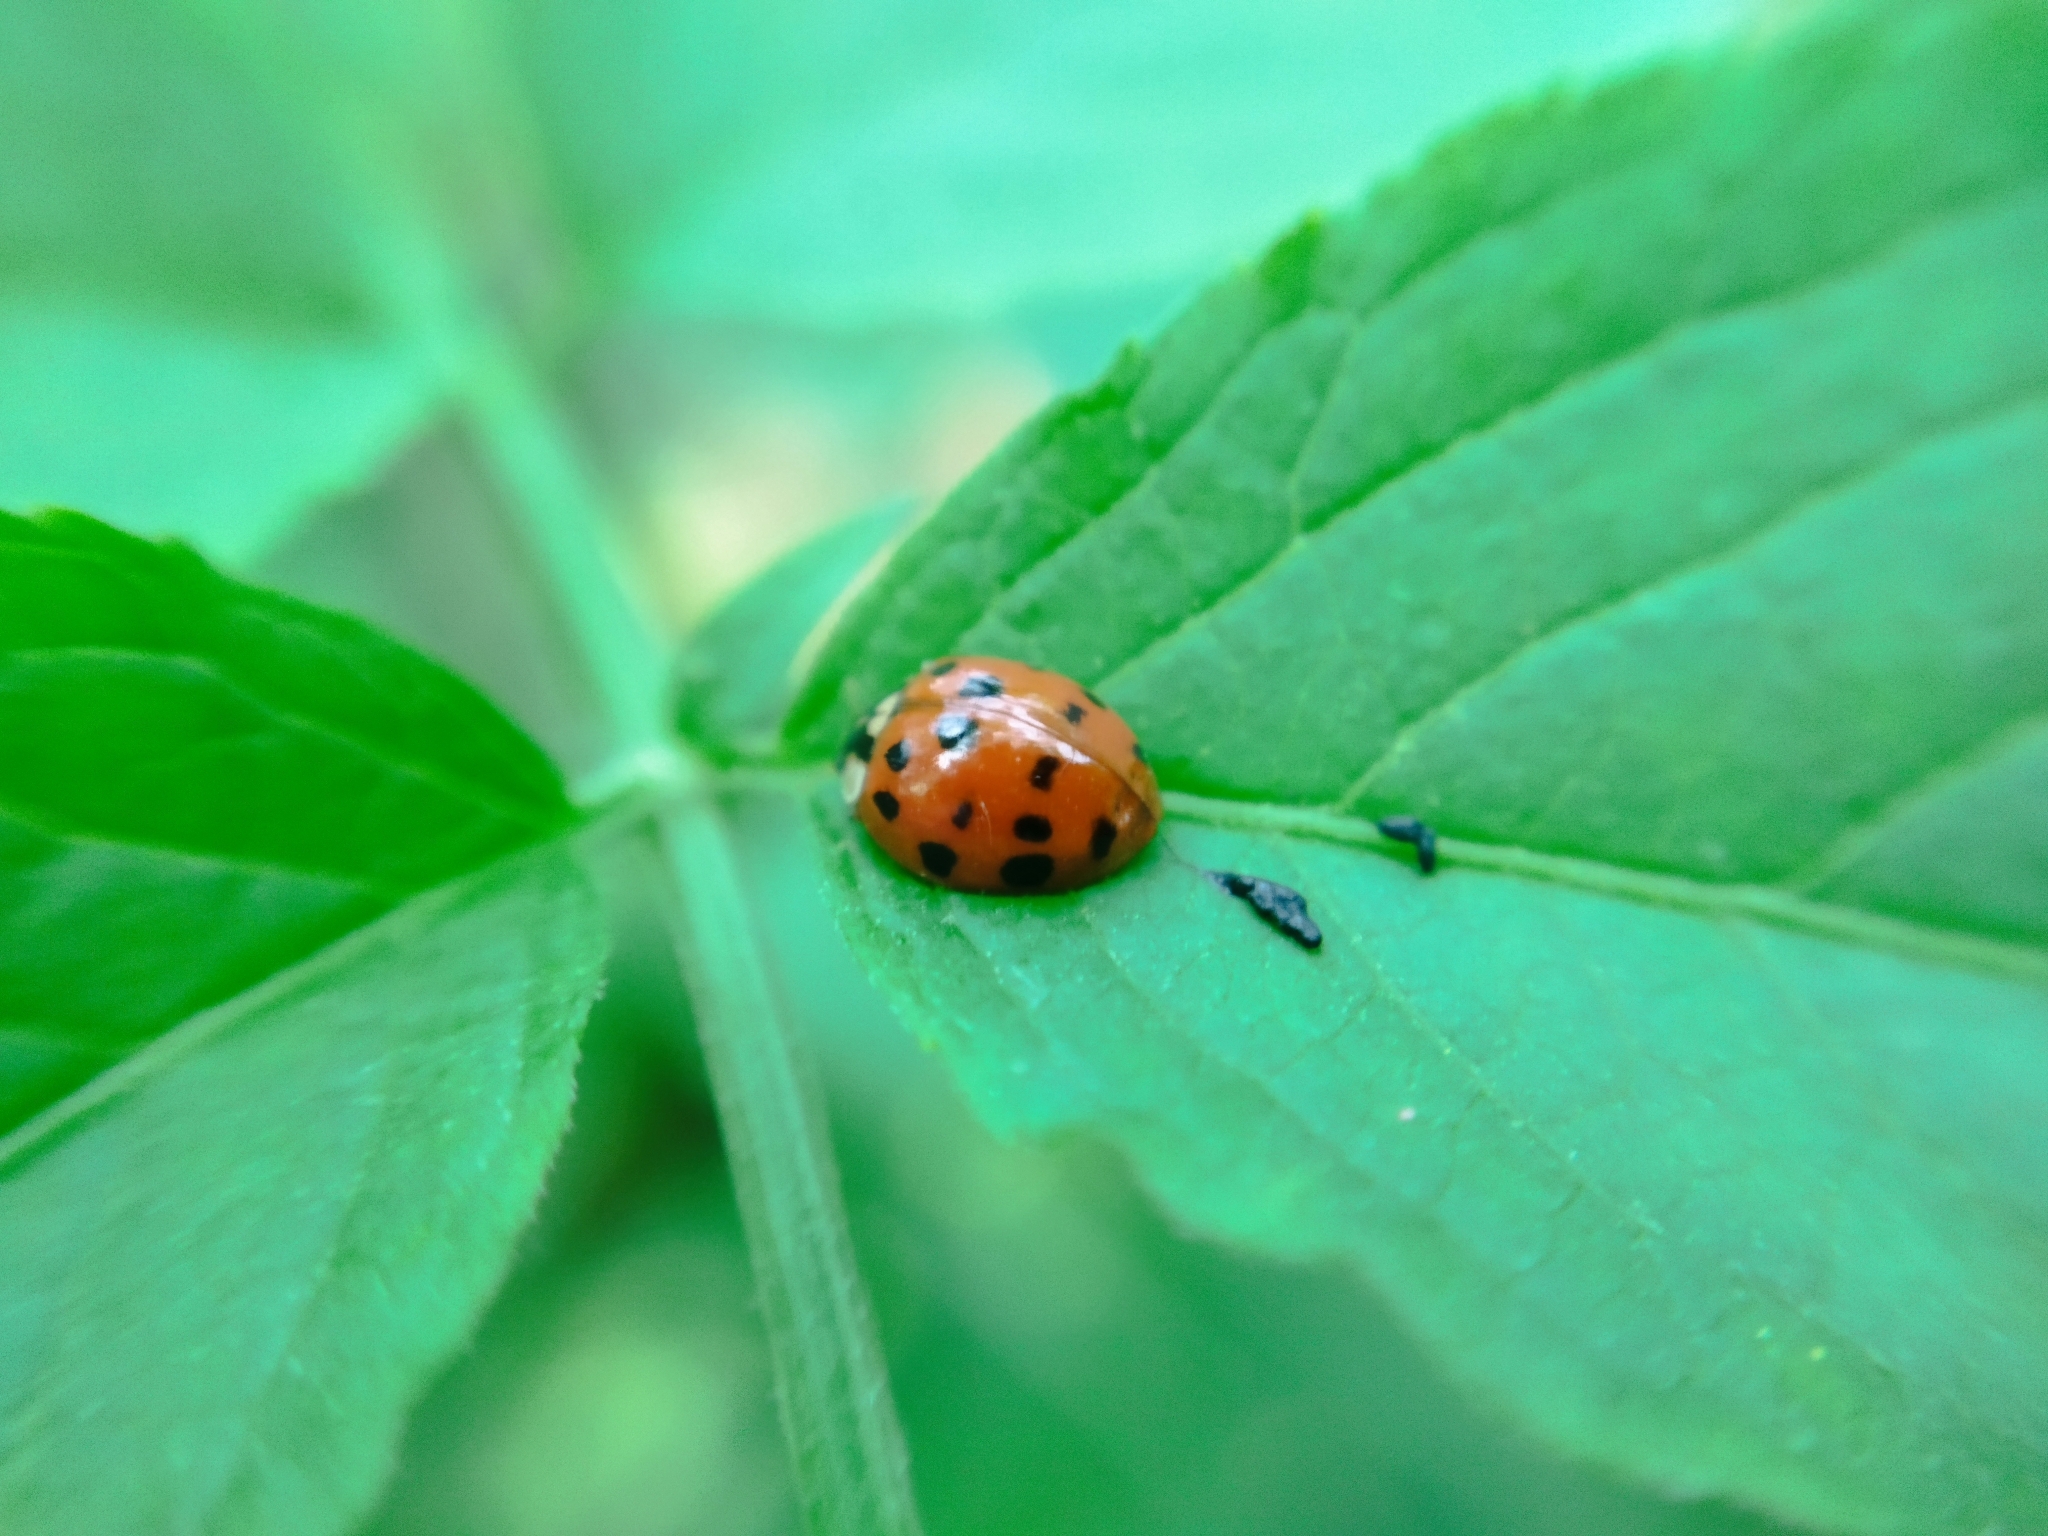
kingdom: Animalia
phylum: Arthropoda
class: Insecta
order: Coleoptera
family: Coccinellidae
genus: Harmonia
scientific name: Harmonia axyridis
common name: Harlequin ladybird
